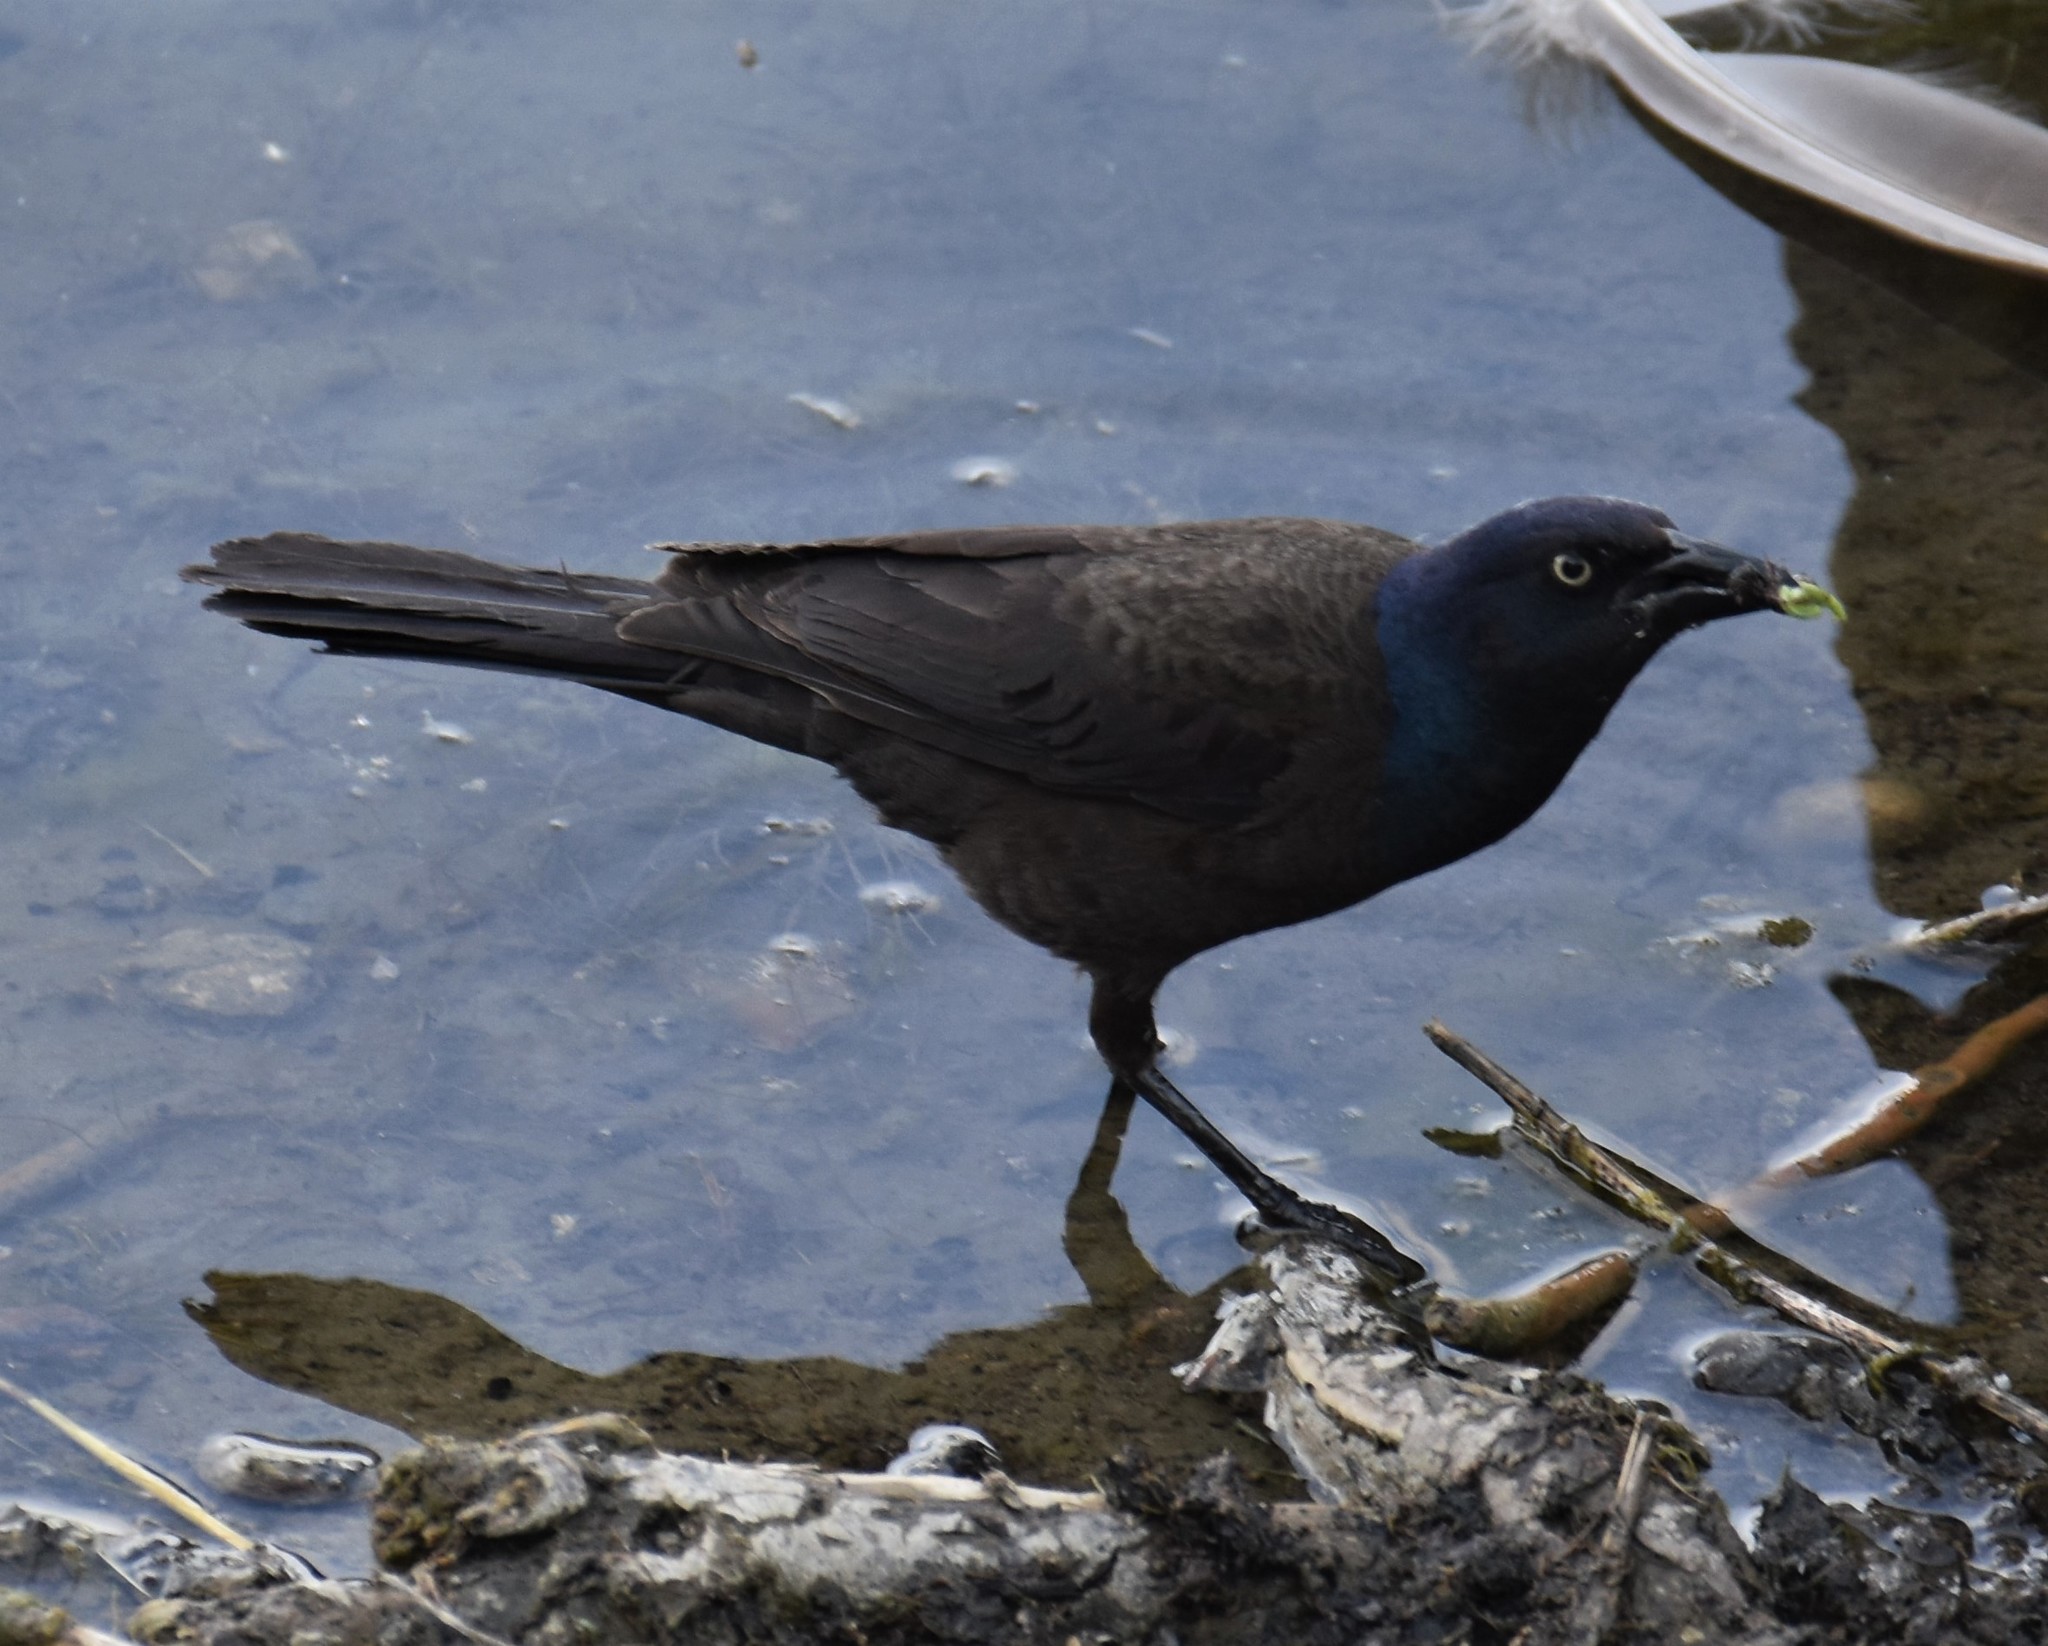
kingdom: Animalia
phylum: Chordata
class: Aves
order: Passeriformes
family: Icteridae
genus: Quiscalus
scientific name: Quiscalus quiscula
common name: Common grackle
